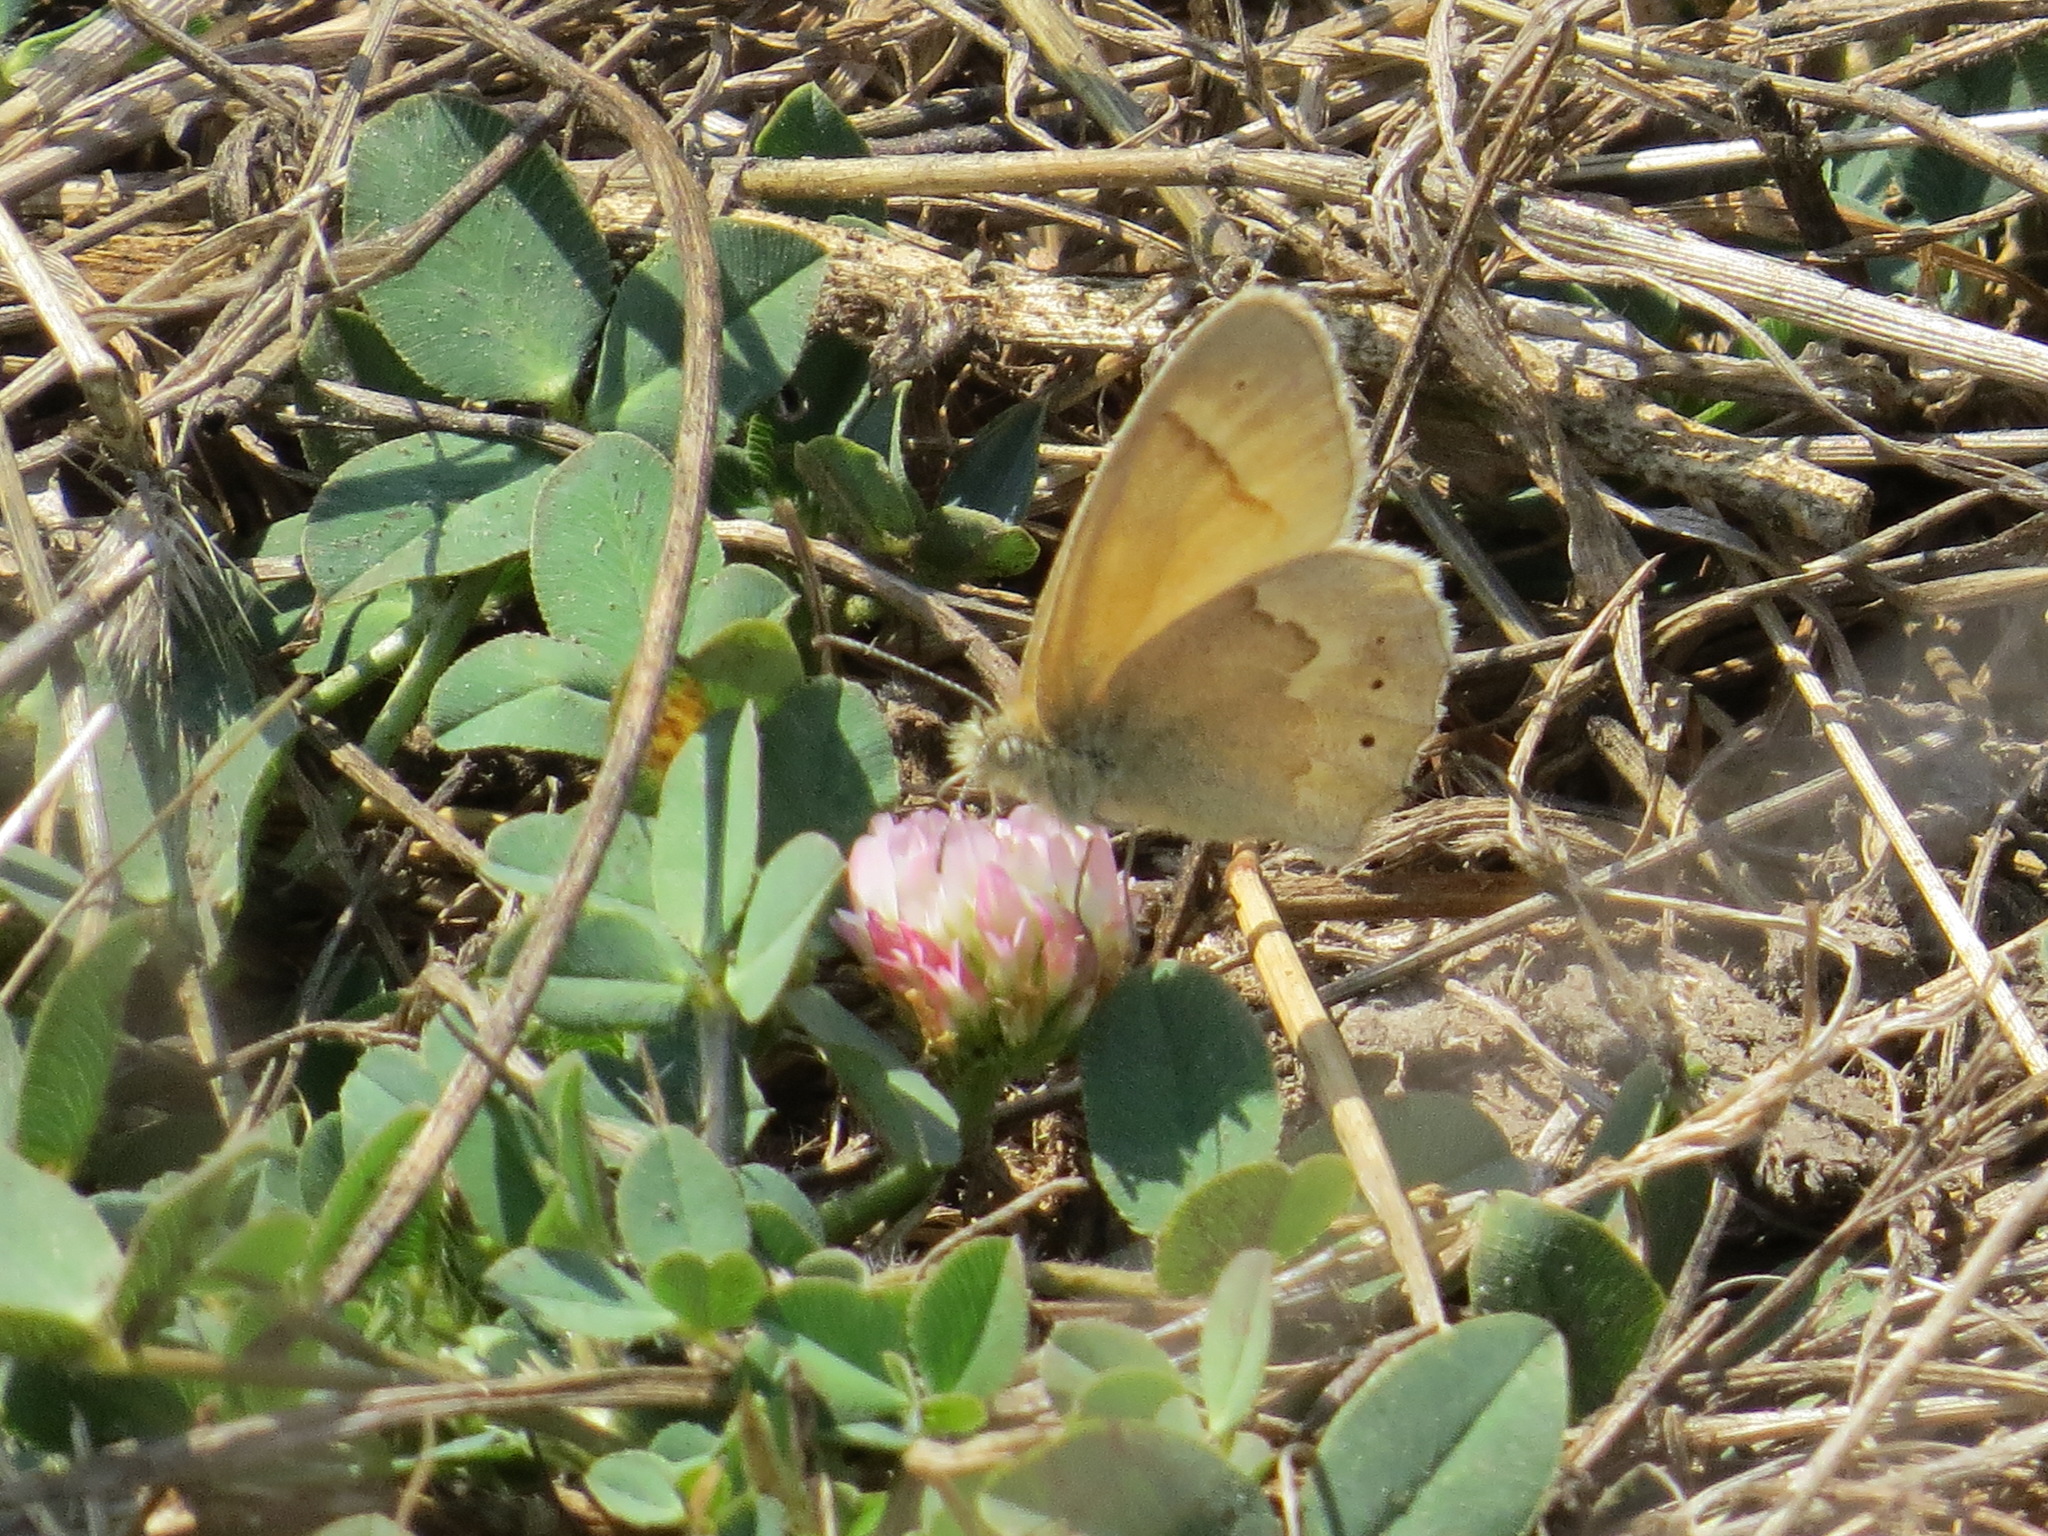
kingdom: Animalia
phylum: Arthropoda
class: Insecta
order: Lepidoptera
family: Nymphalidae
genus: Coenonympha
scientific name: Coenonympha california
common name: Common ringlet
